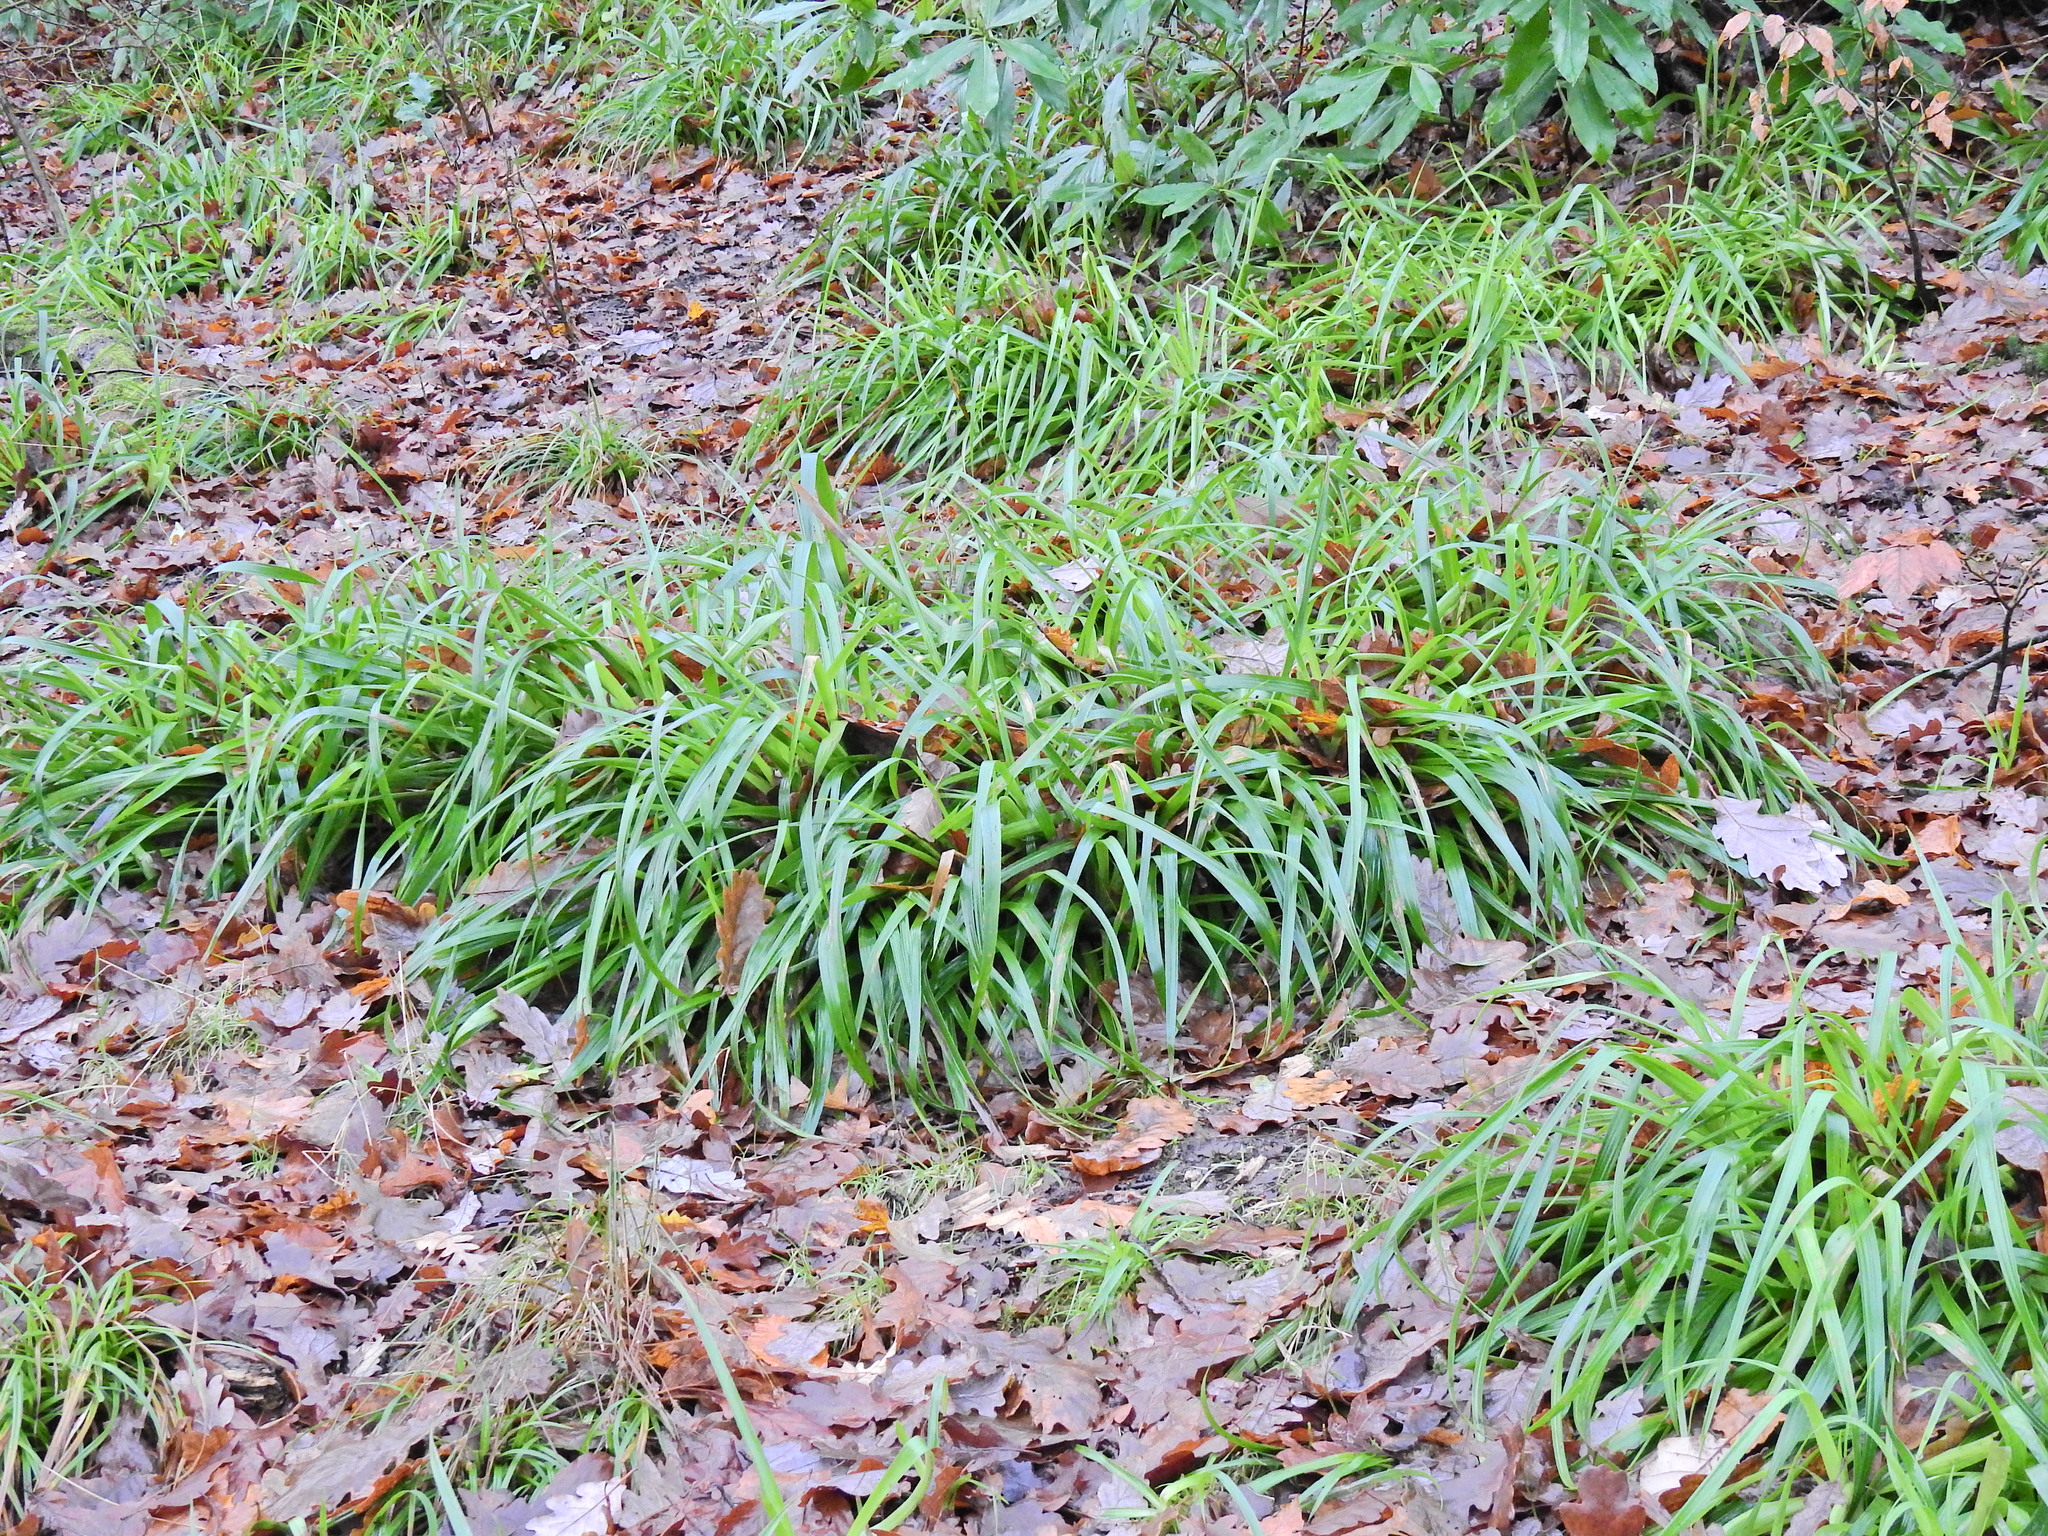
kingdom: Plantae
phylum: Tracheophyta
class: Liliopsida
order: Poales
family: Juncaceae
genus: Luzula
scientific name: Luzula sylvatica
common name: Great wood-rush
